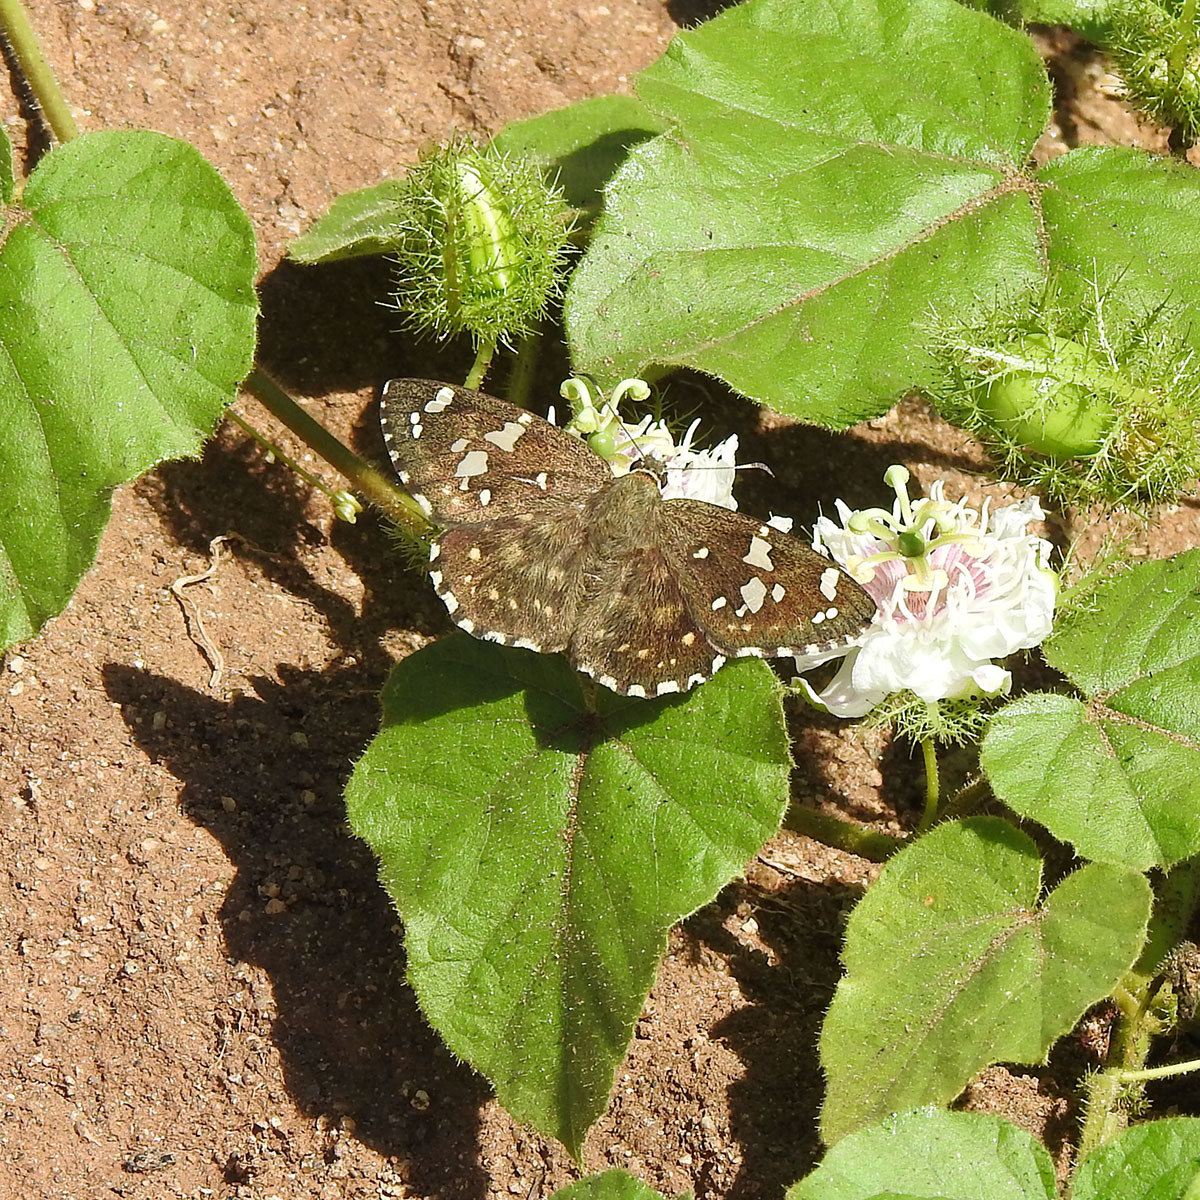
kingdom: Animalia
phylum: Arthropoda
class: Insecta
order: Lepidoptera
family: Hesperiidae
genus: Celaenorrhinus
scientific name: Celaenorrhinus ambareesa
